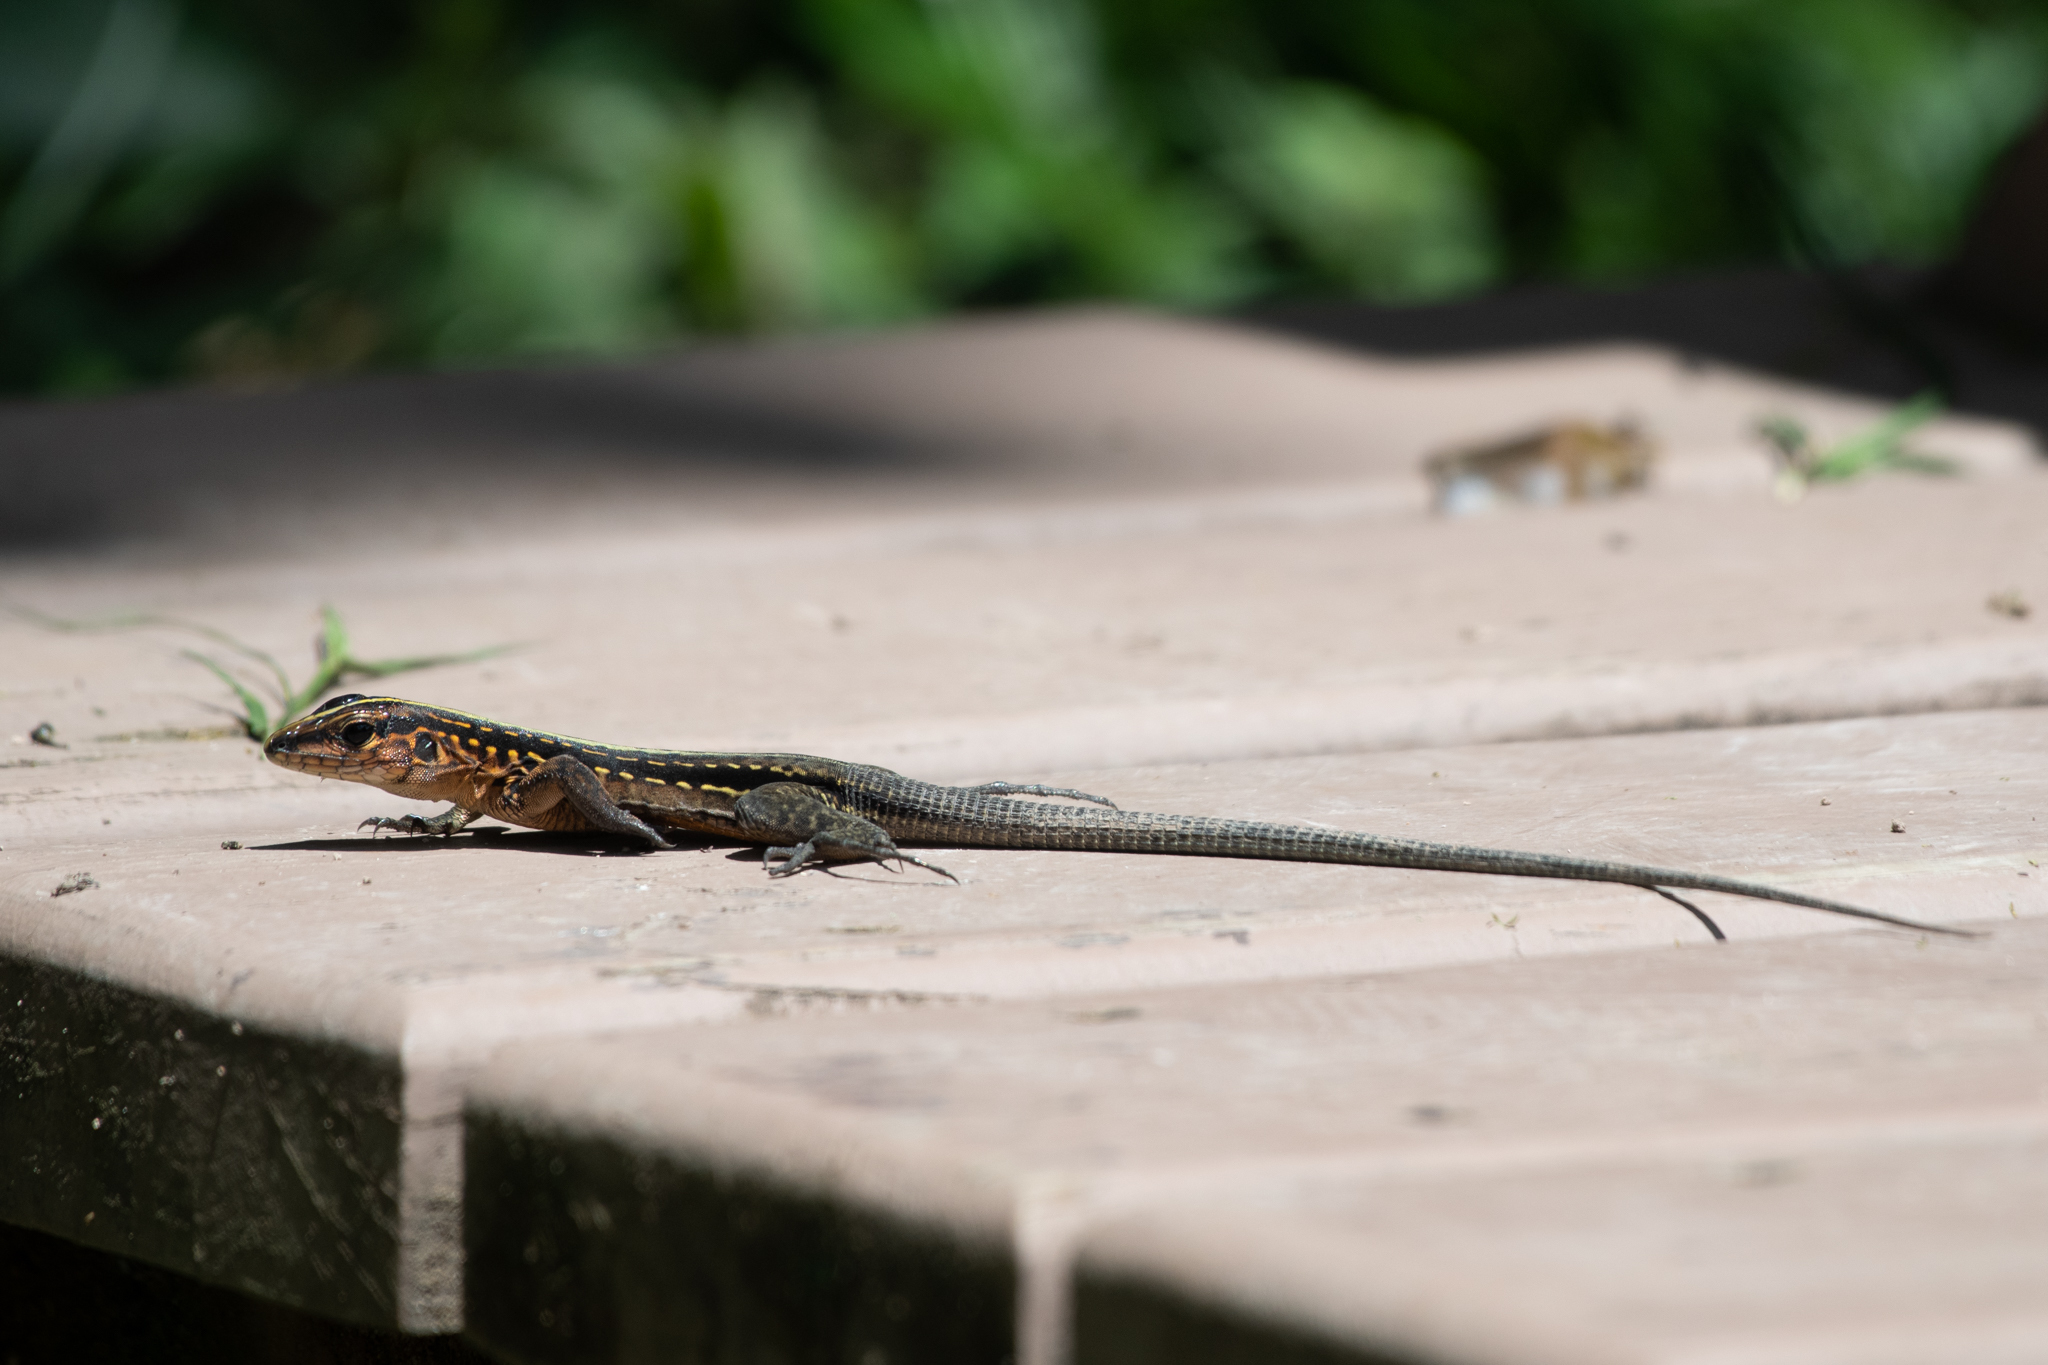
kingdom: Animalia
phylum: Chordata
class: Squamata
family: Teiidae
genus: Holcosus
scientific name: Holcosus festivus
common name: Middle american ameiva
